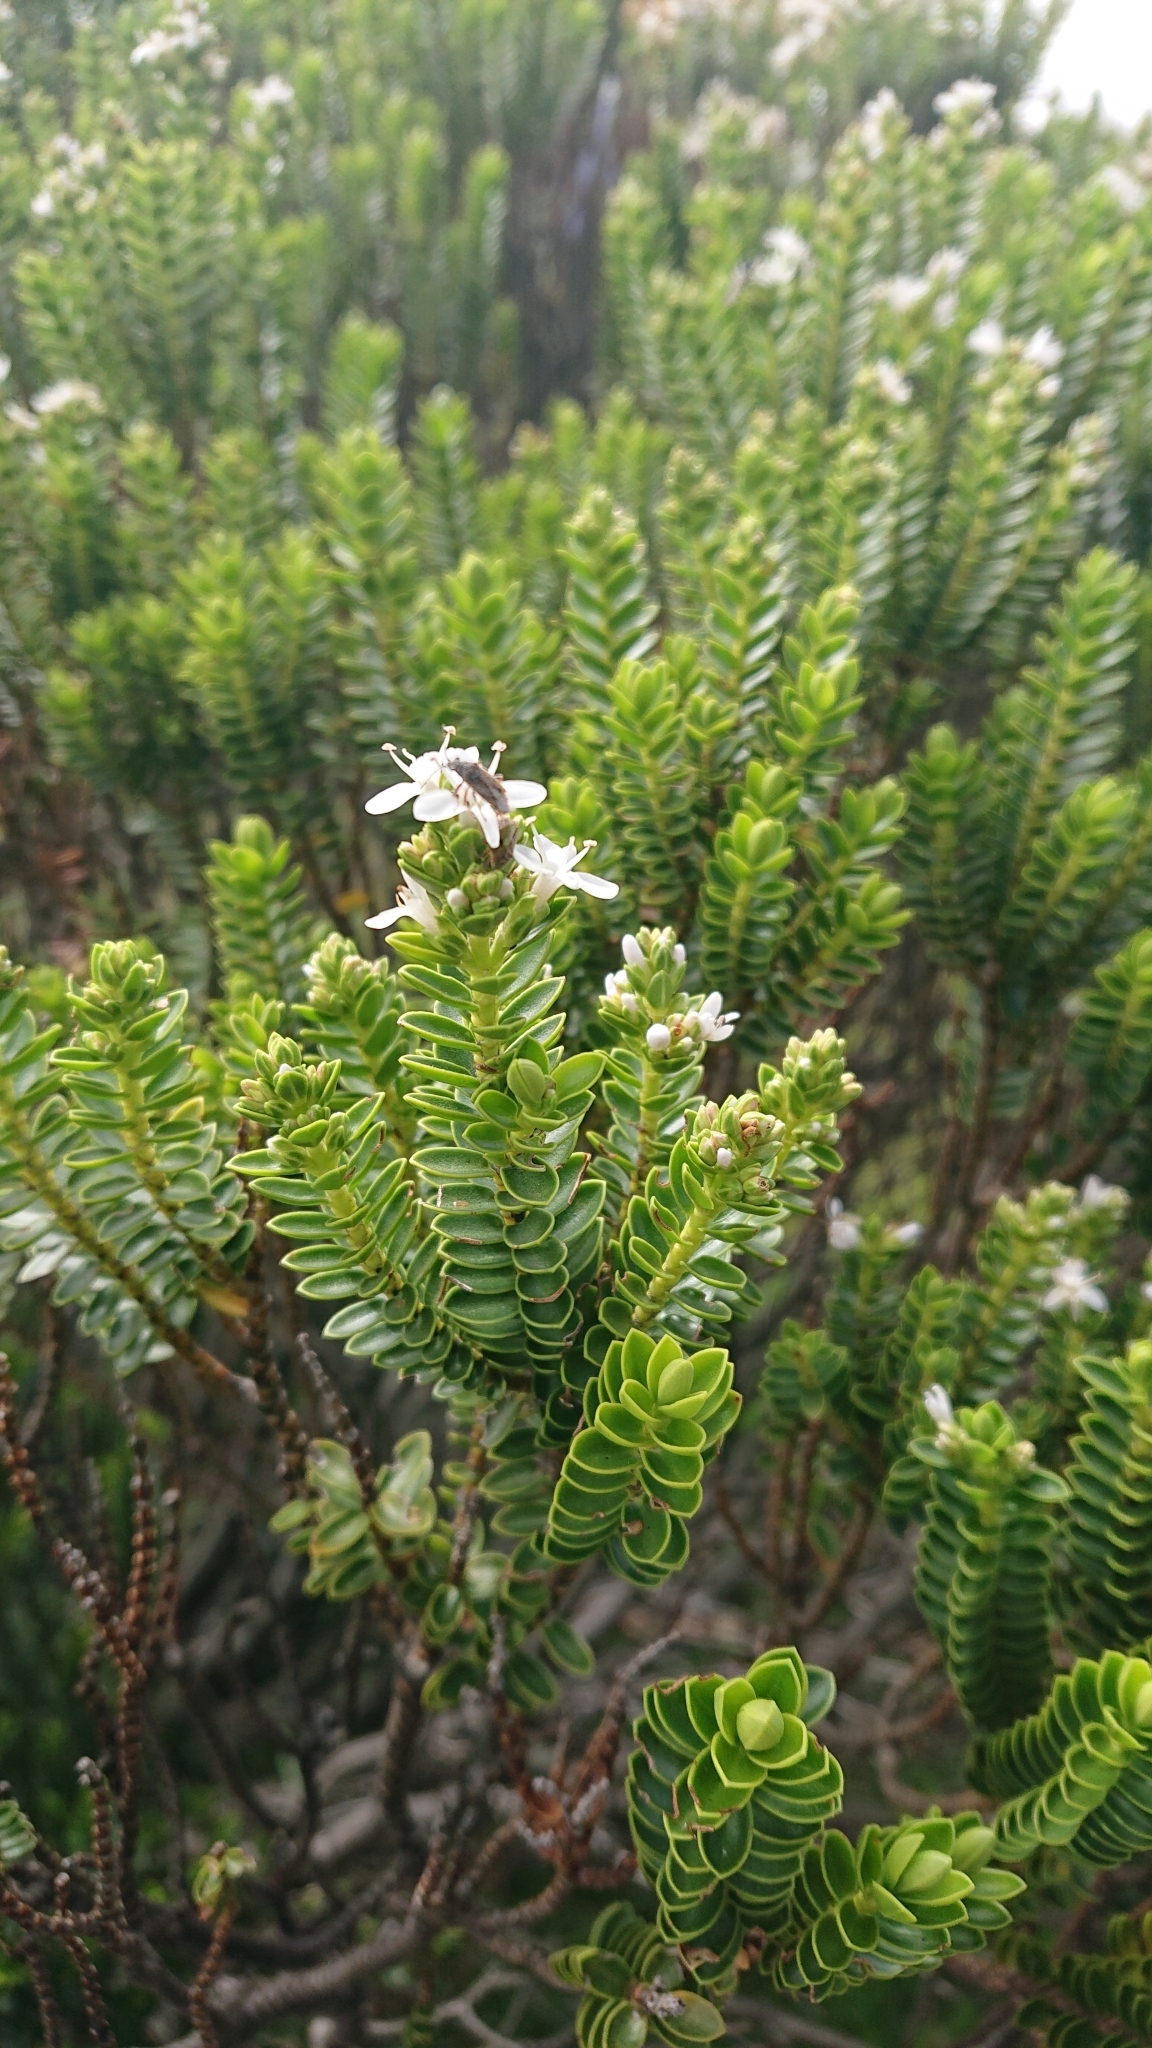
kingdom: Plantae
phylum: Tracheophyta
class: Magnoliopsida
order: Lamiales
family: Plantaginaceae
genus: Veronica
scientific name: Veronica odora
